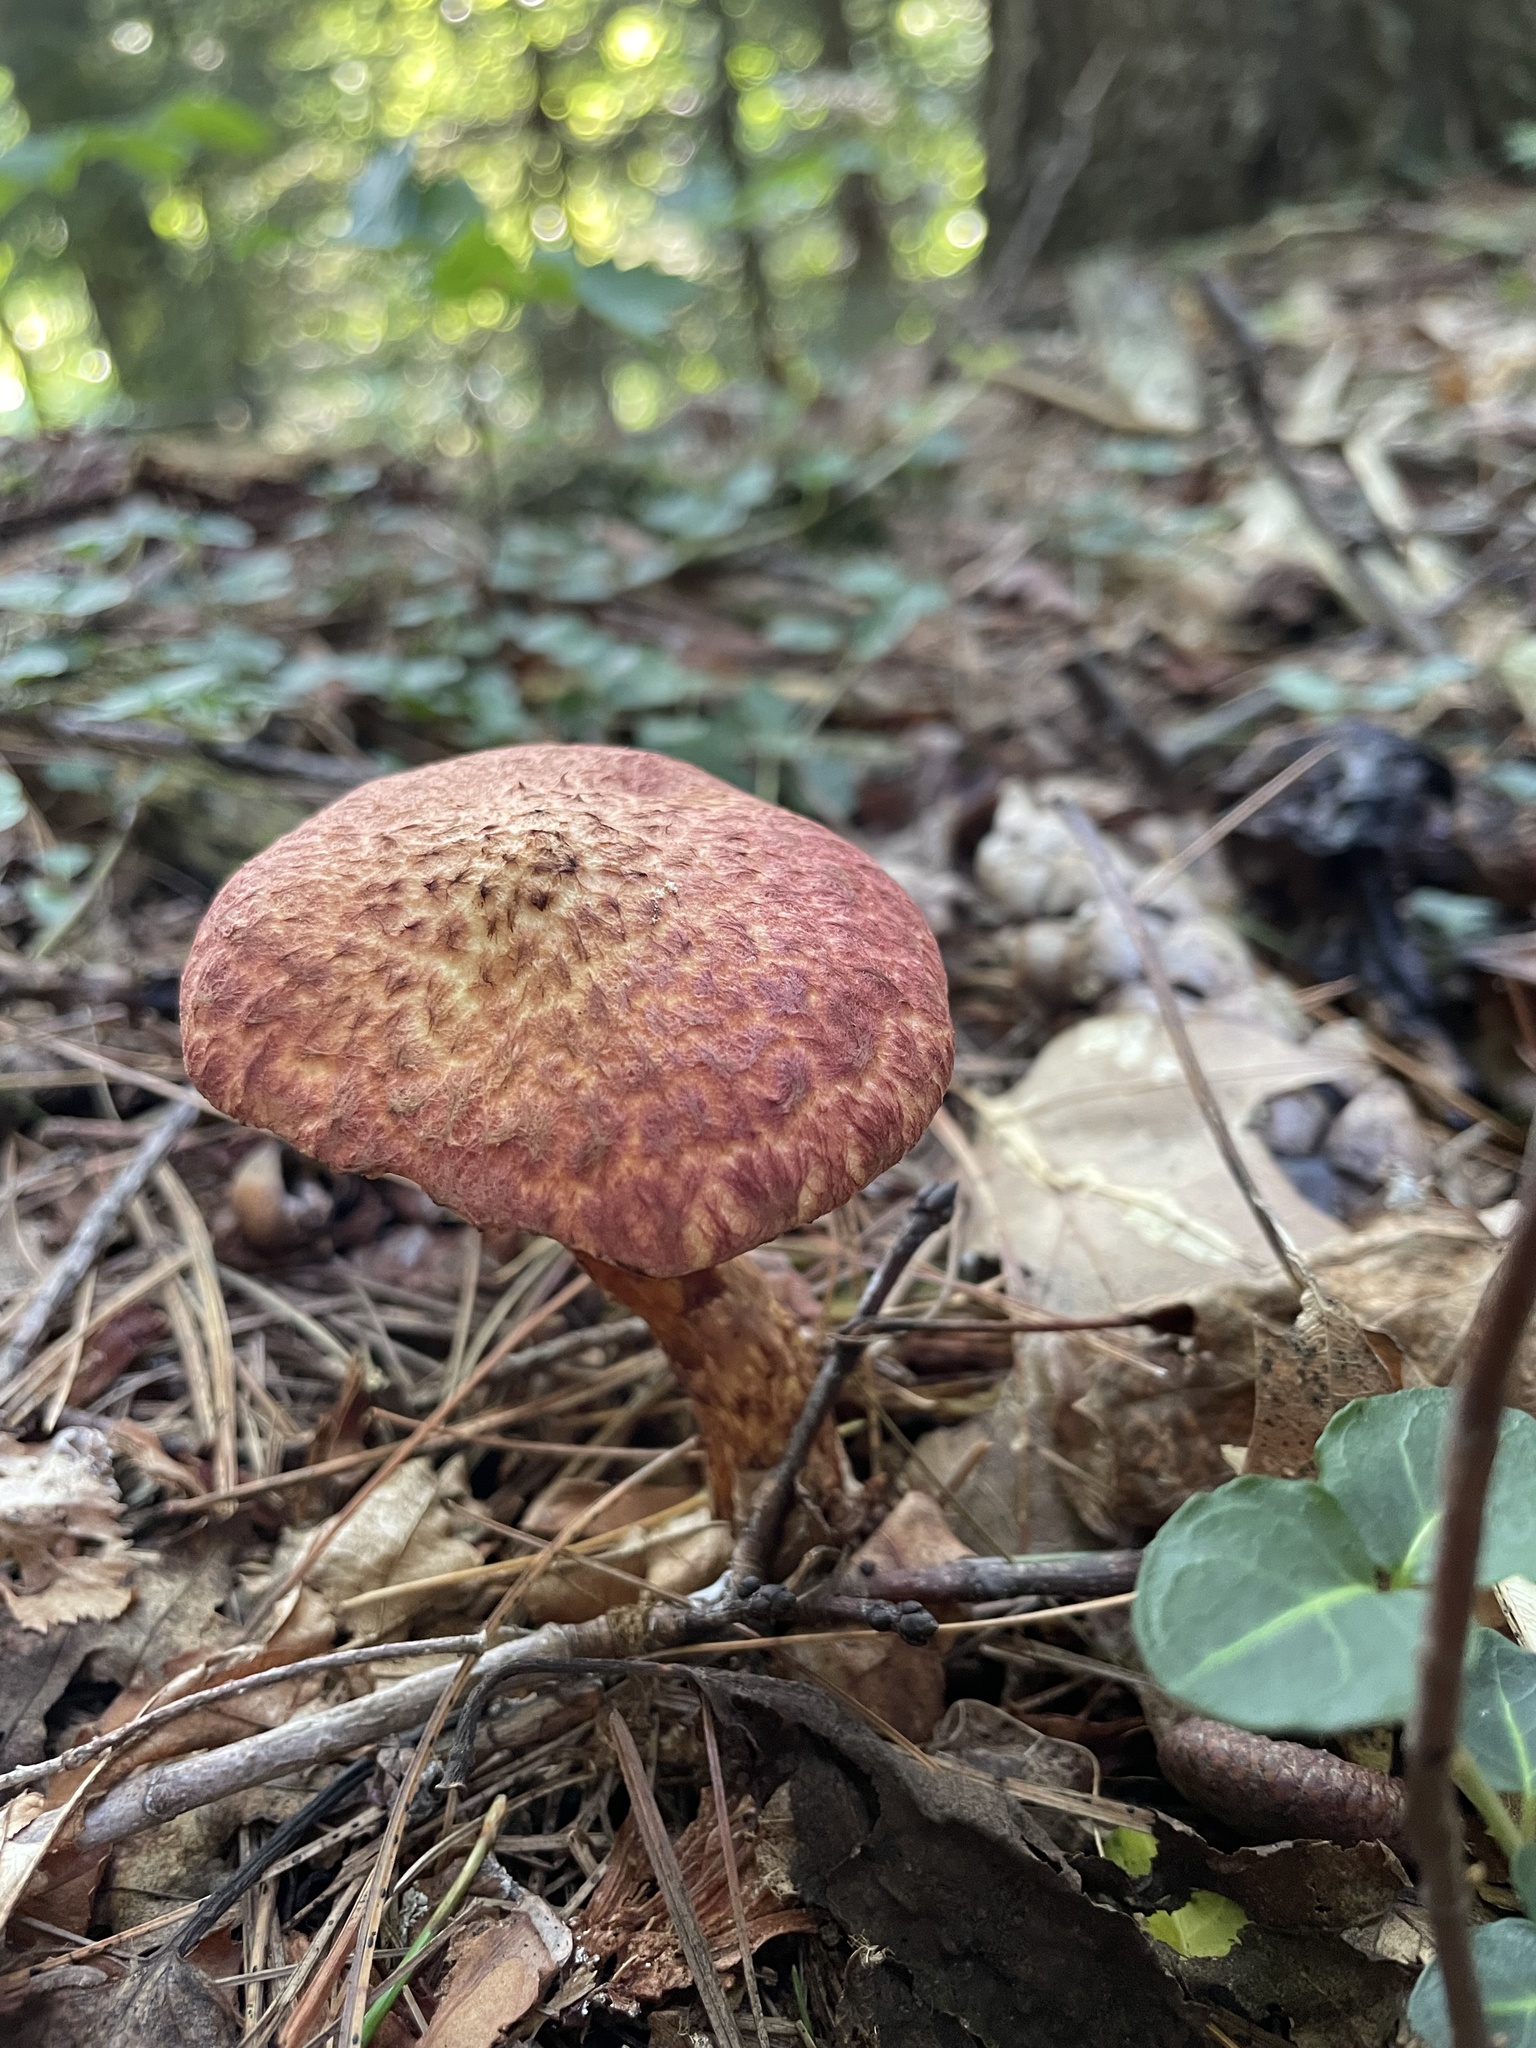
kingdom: Fungi
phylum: Basidiomycota
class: Agaricomycetes
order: Boletales
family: Suillaceae
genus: Suillus
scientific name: Suillus spraguei
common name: Painted suillus
